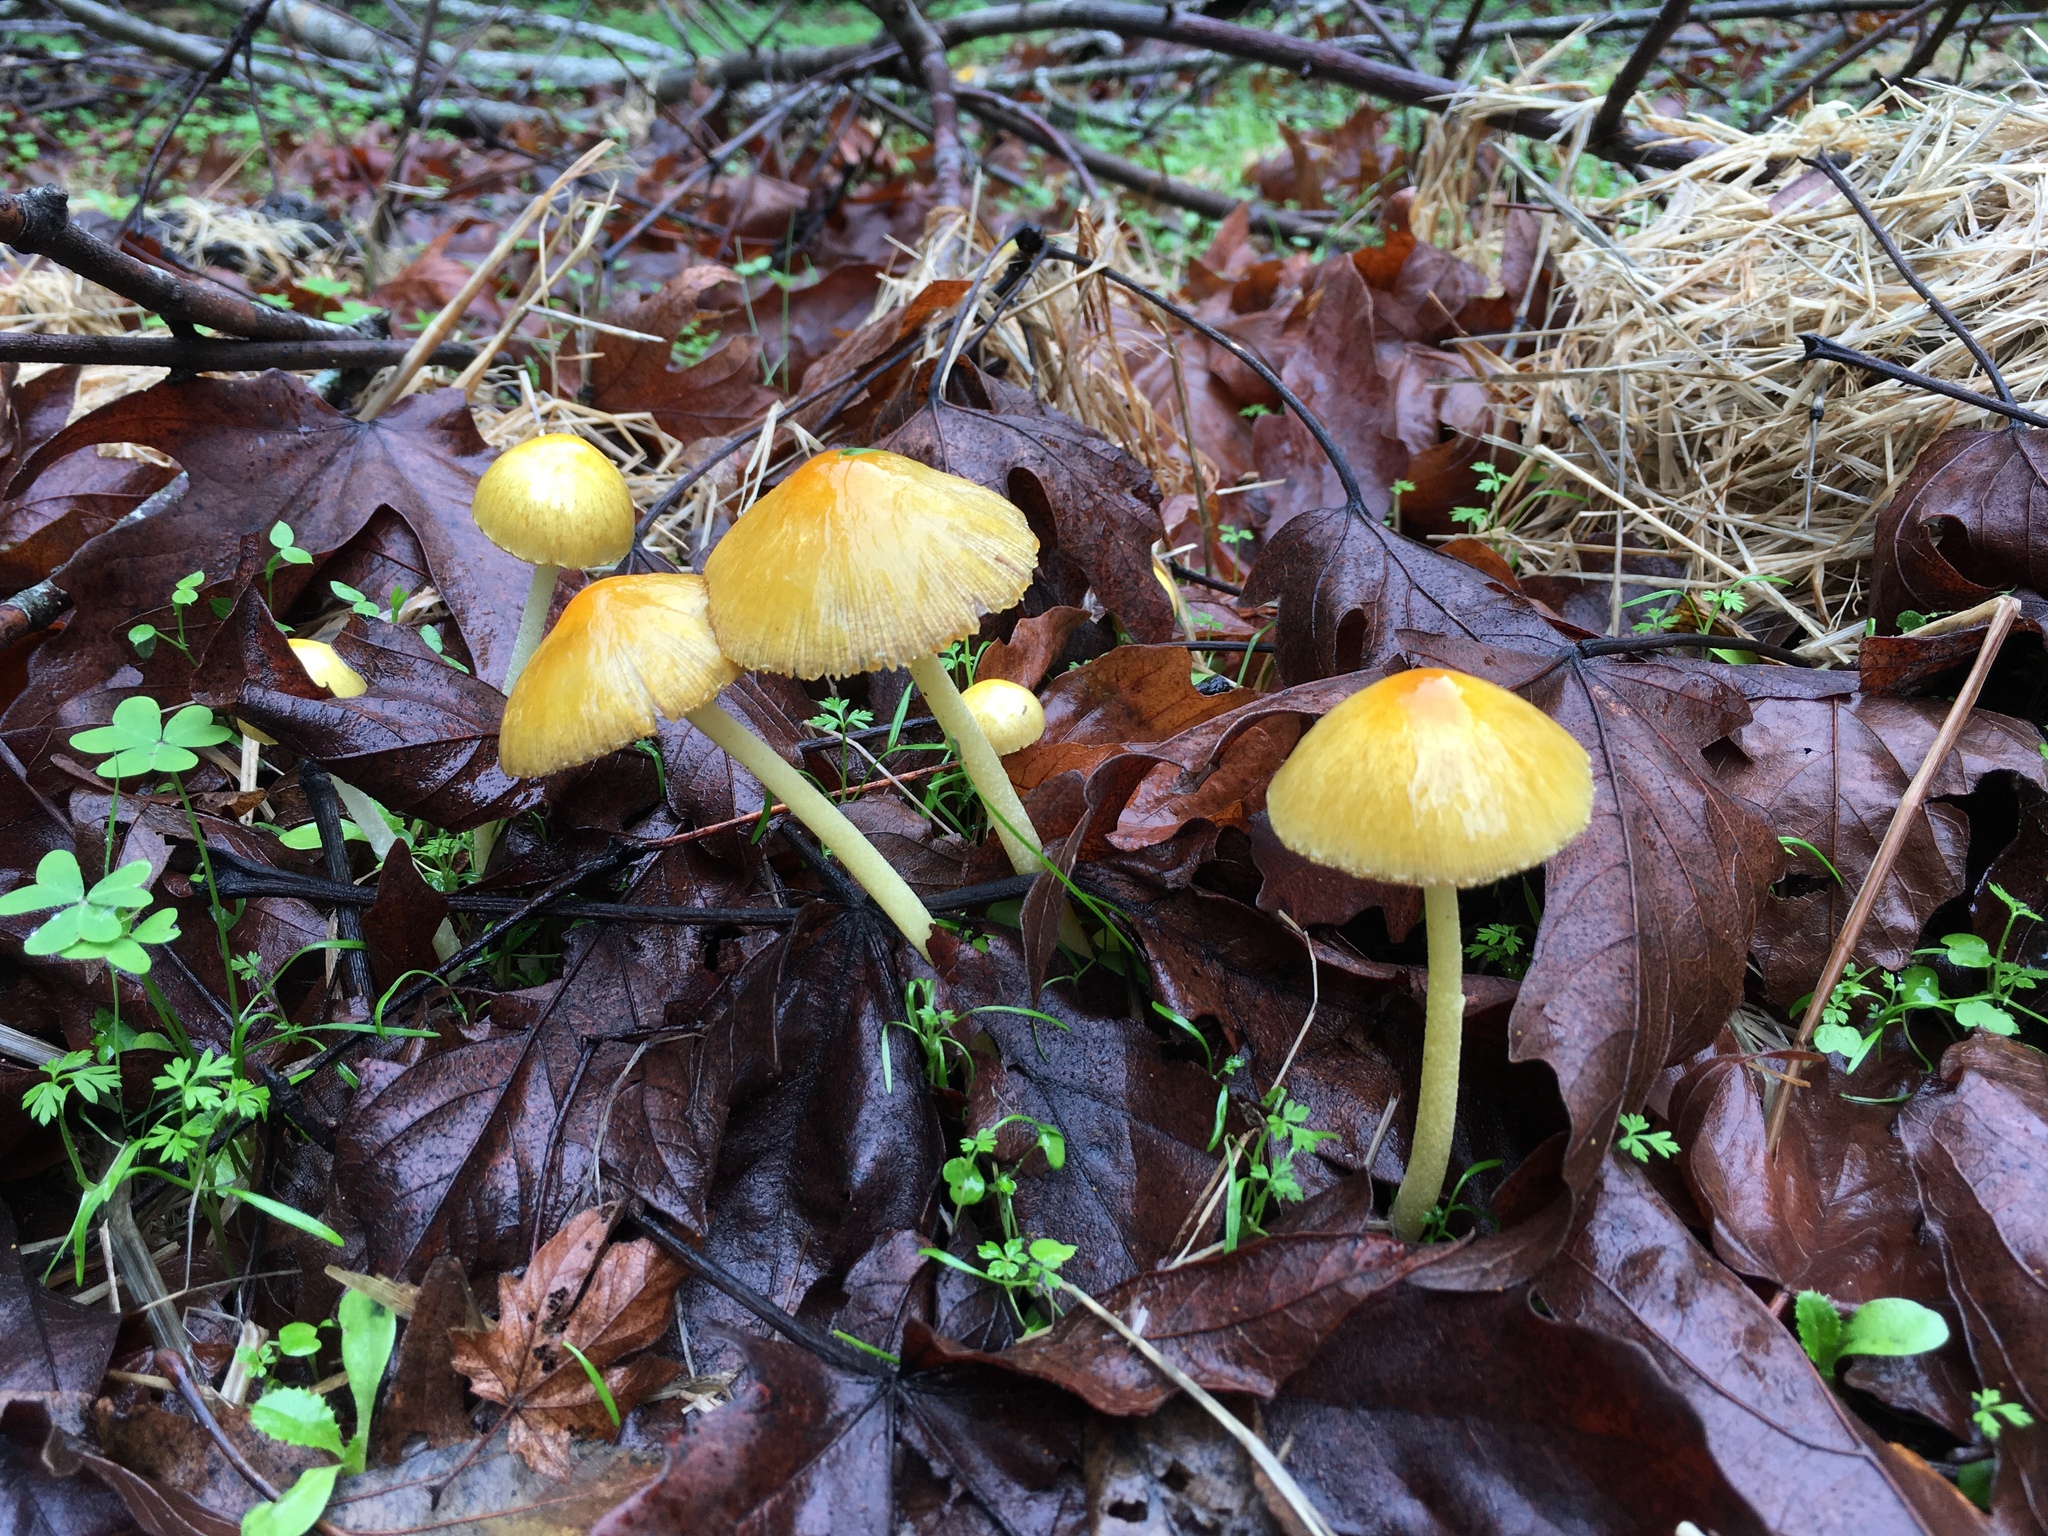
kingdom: Fungi
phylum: Basidiomycota
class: Agaricomycetes
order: Agaricales
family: Bolbitiaceae
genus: Bolbitius
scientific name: Bolbitius titubans
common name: Yellow fieldcap
